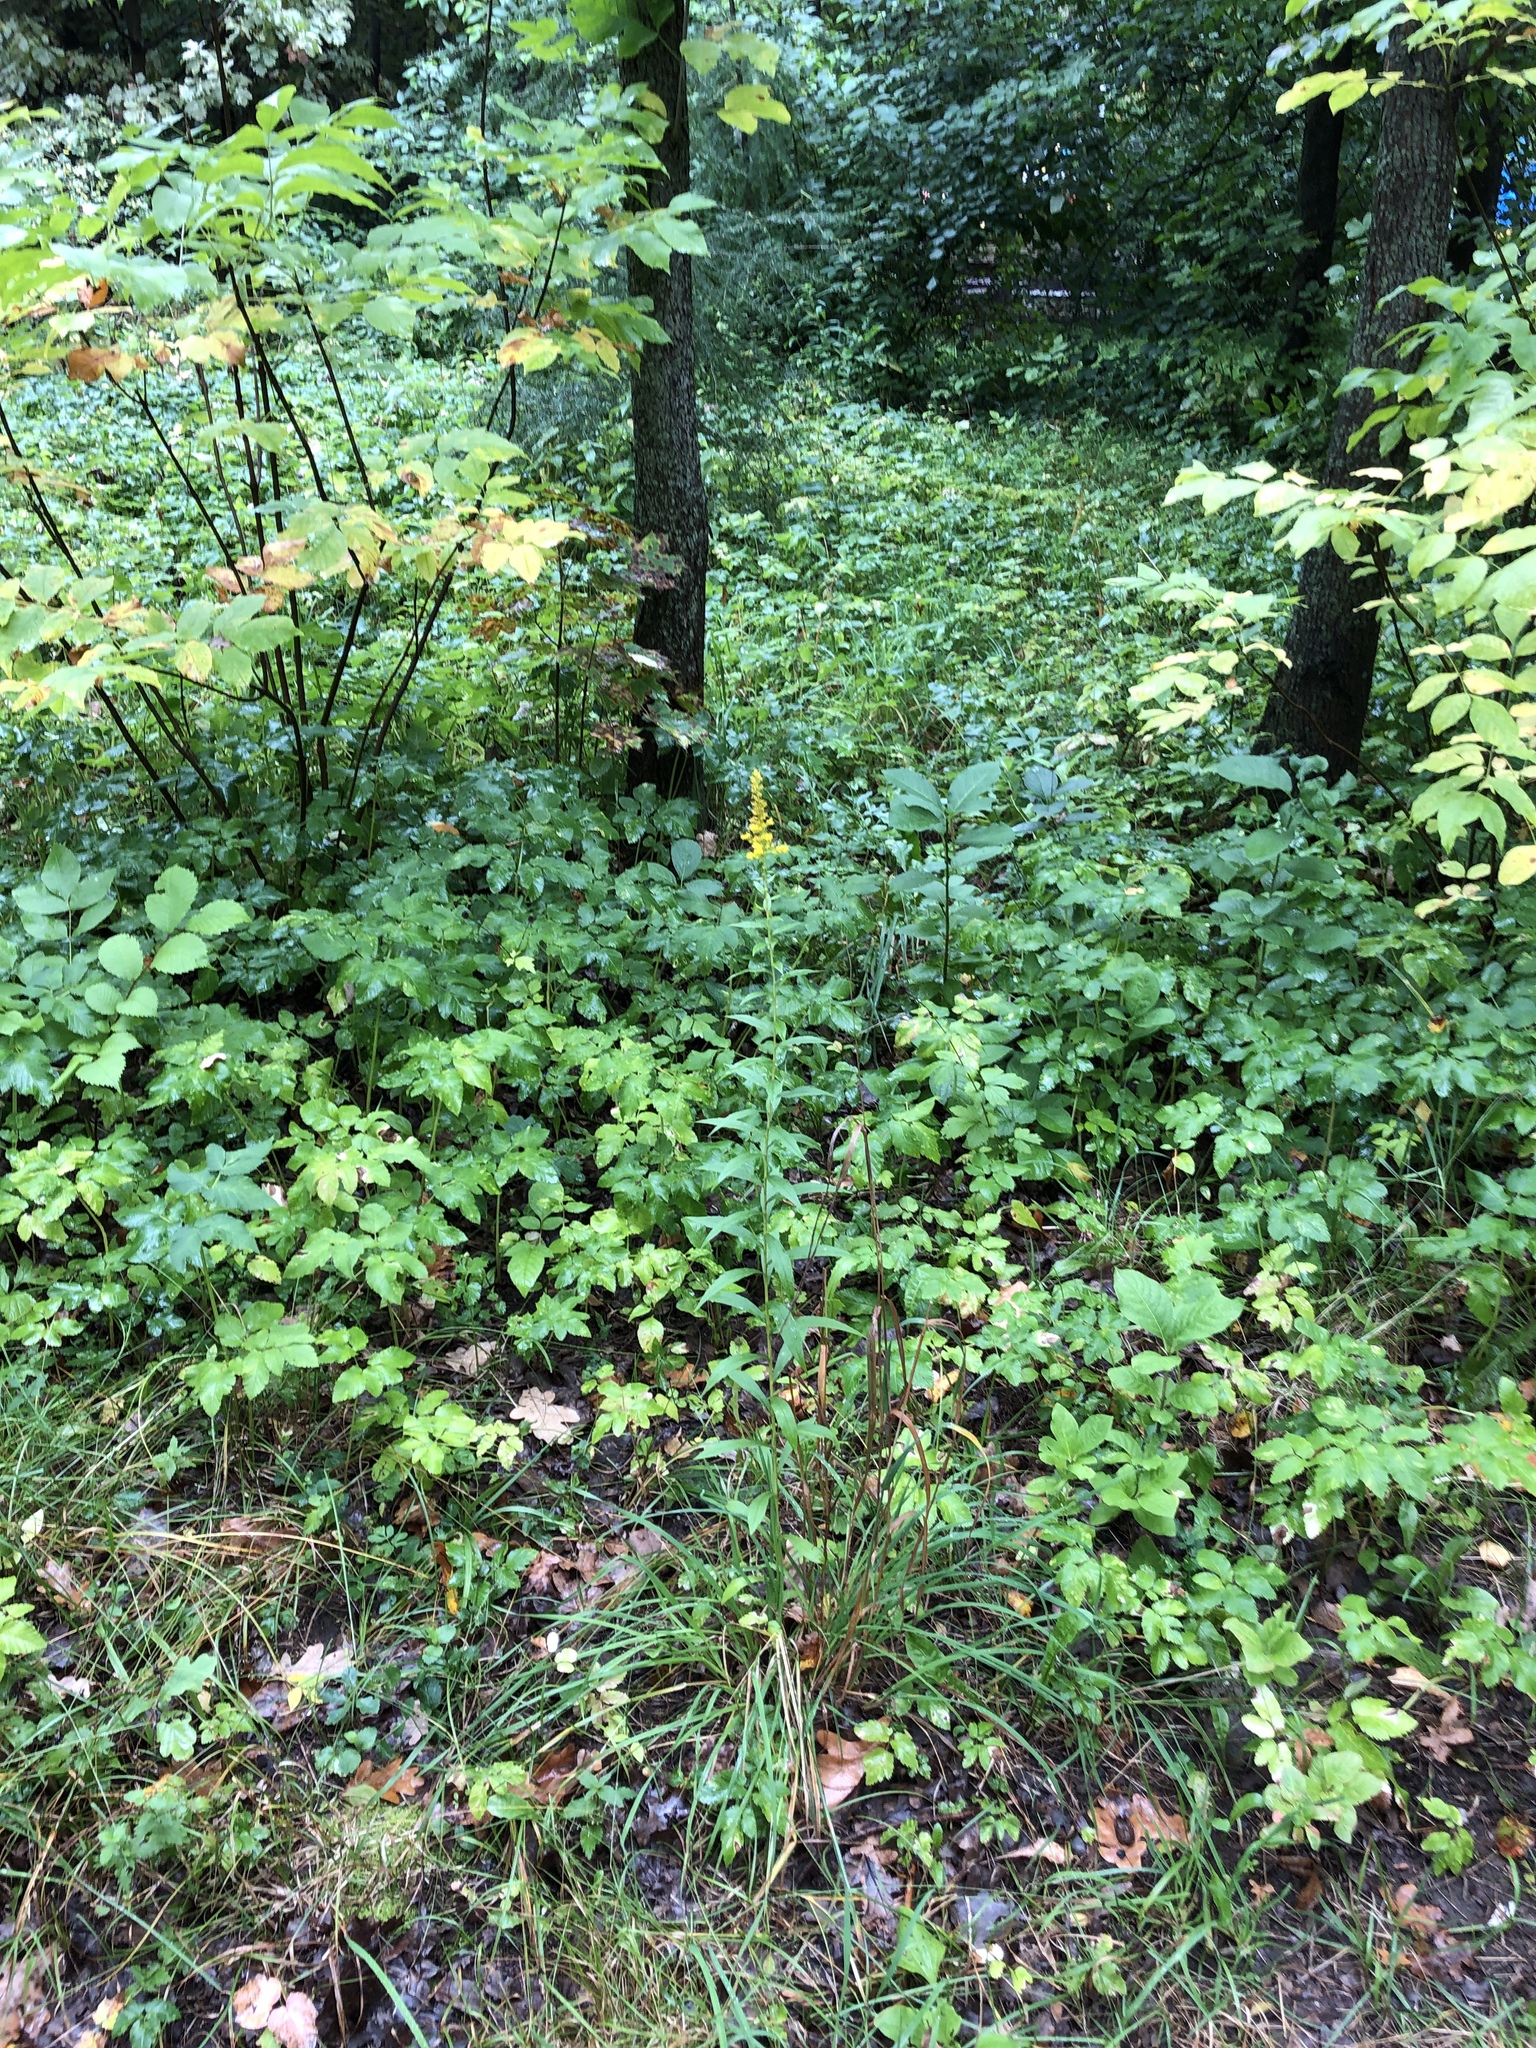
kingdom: Plantae
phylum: Tracheophyta
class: Magnoliopsida
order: Asterales
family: Asteraceae
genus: Solidago
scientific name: Solidago virgaurea
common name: Goldenrod
